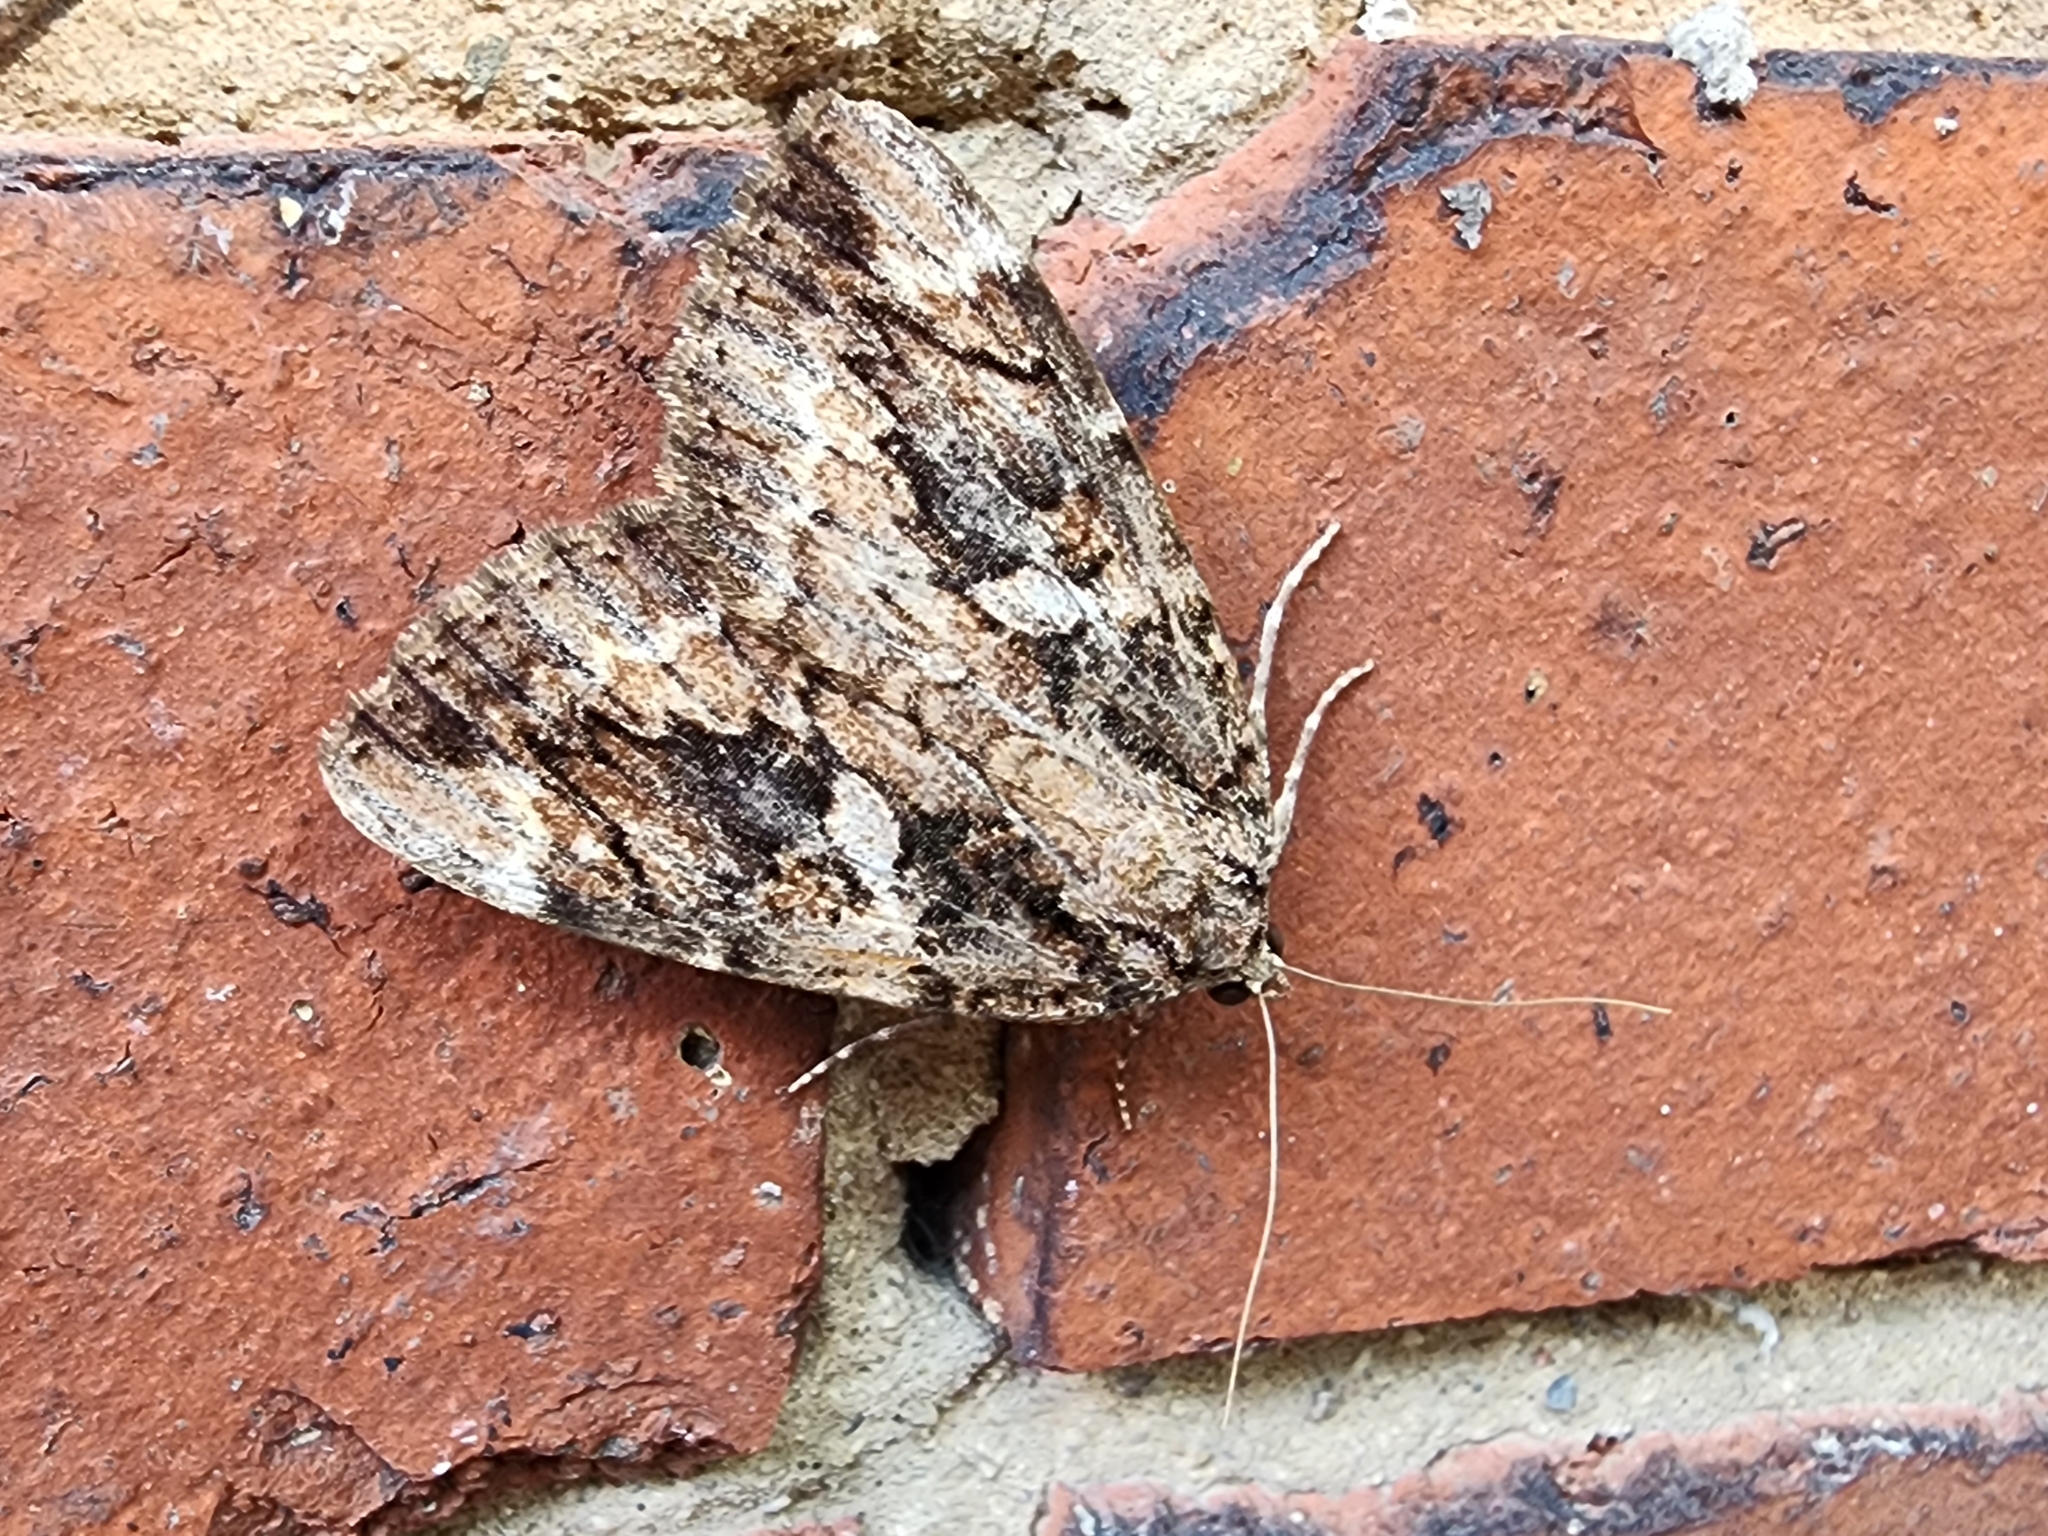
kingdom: Animalia
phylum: Arthropoda
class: Insecta
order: Lepidoptera
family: Erebidae
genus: Catocala
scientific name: Catocala innubens
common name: Betrothed underwing
